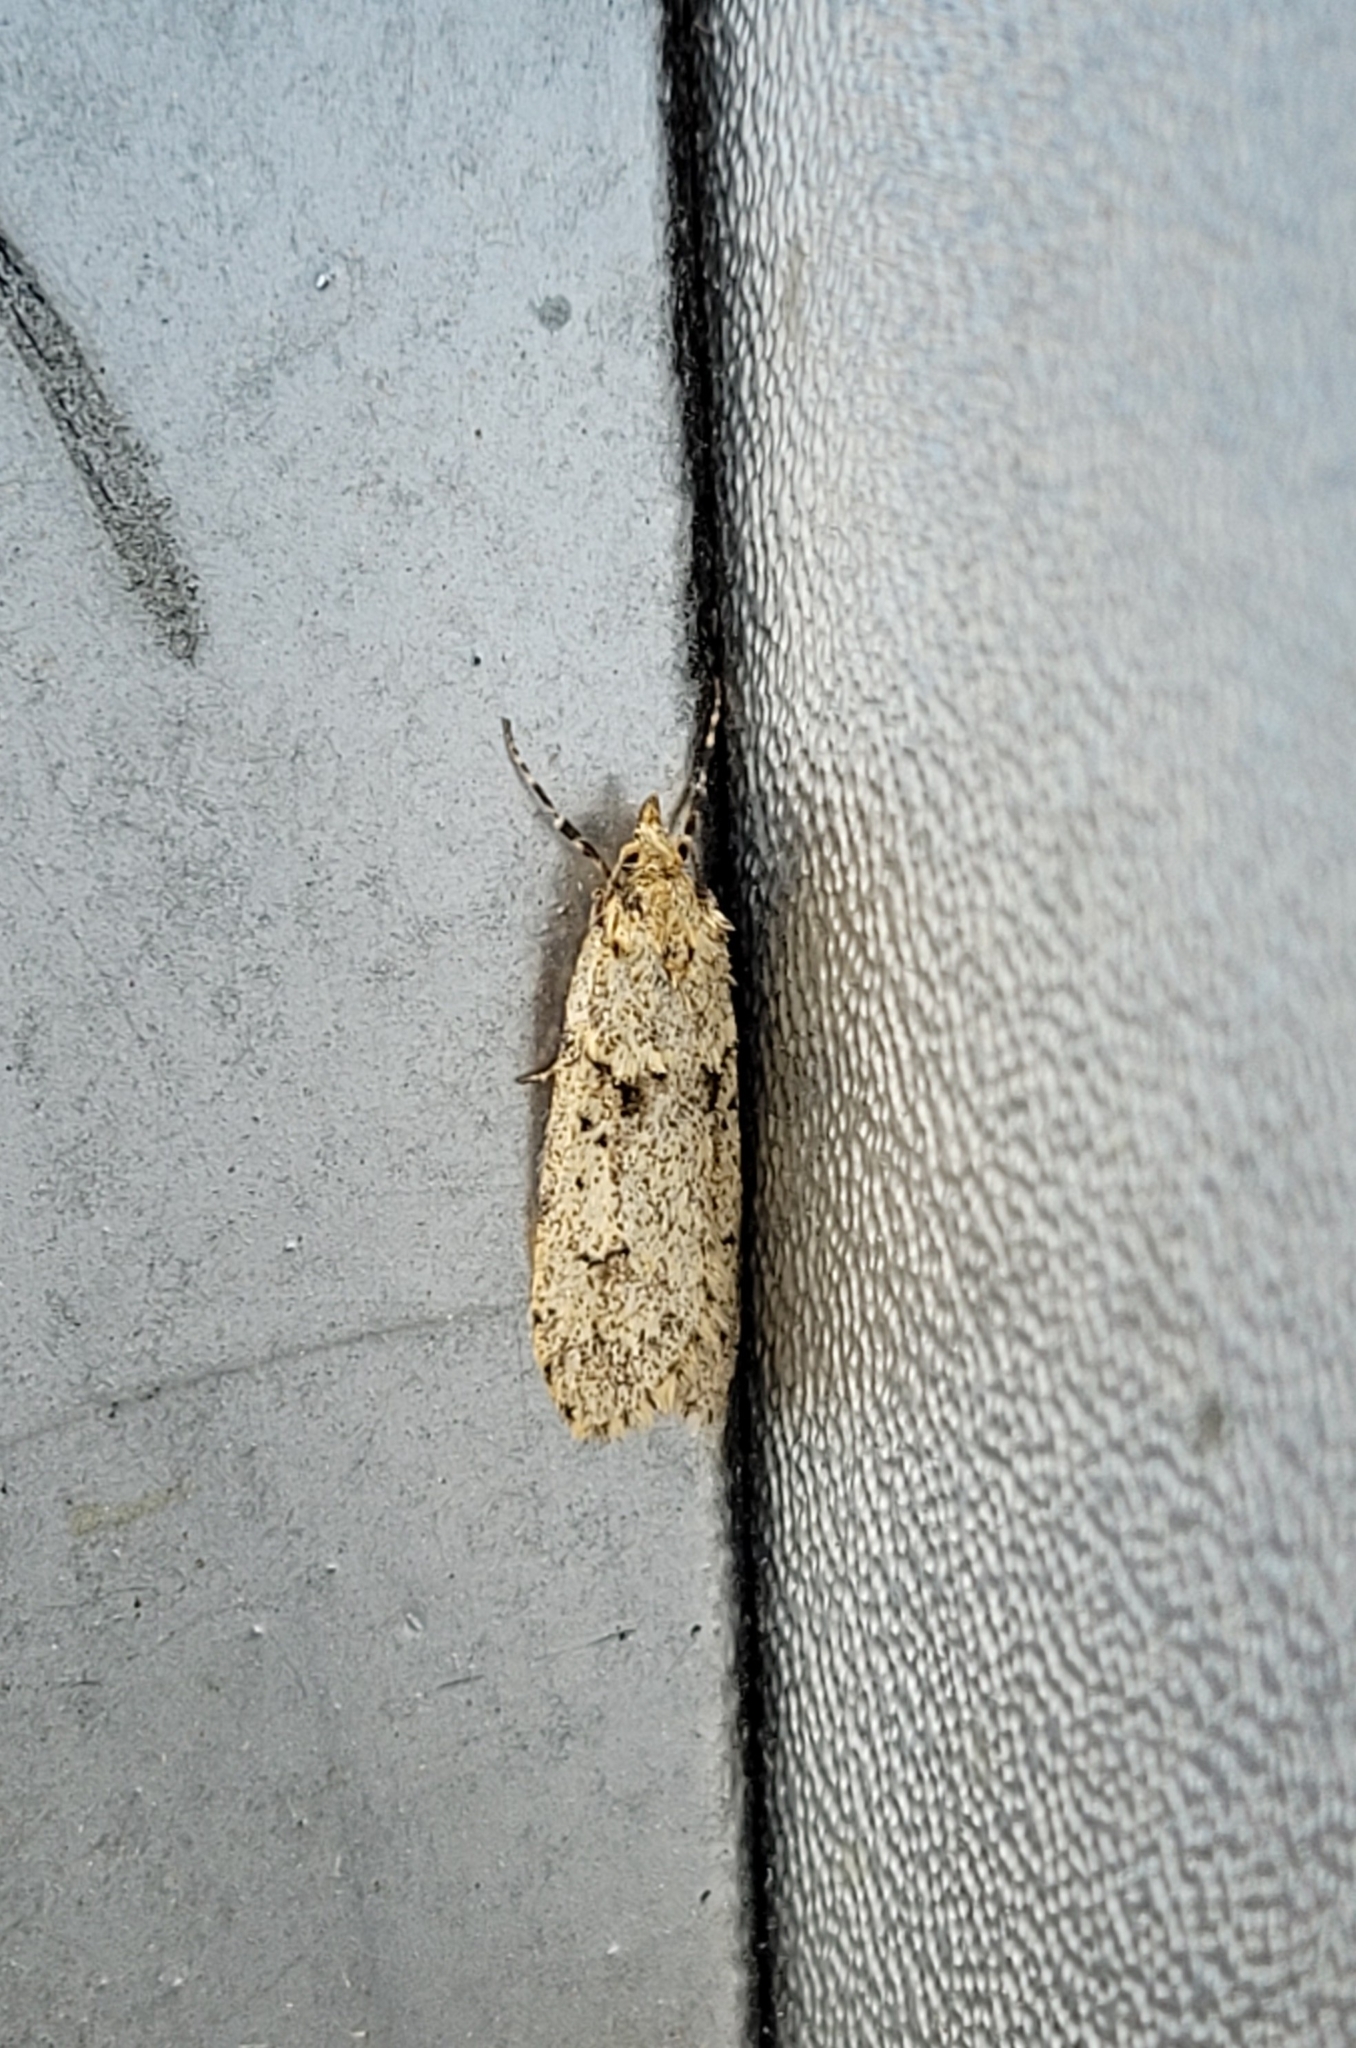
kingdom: Animalia
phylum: Arthropoda
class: Insecta
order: Lepidoptera
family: Lypusidae
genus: Diurnea
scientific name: Diurnea fagella
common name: March tubic
